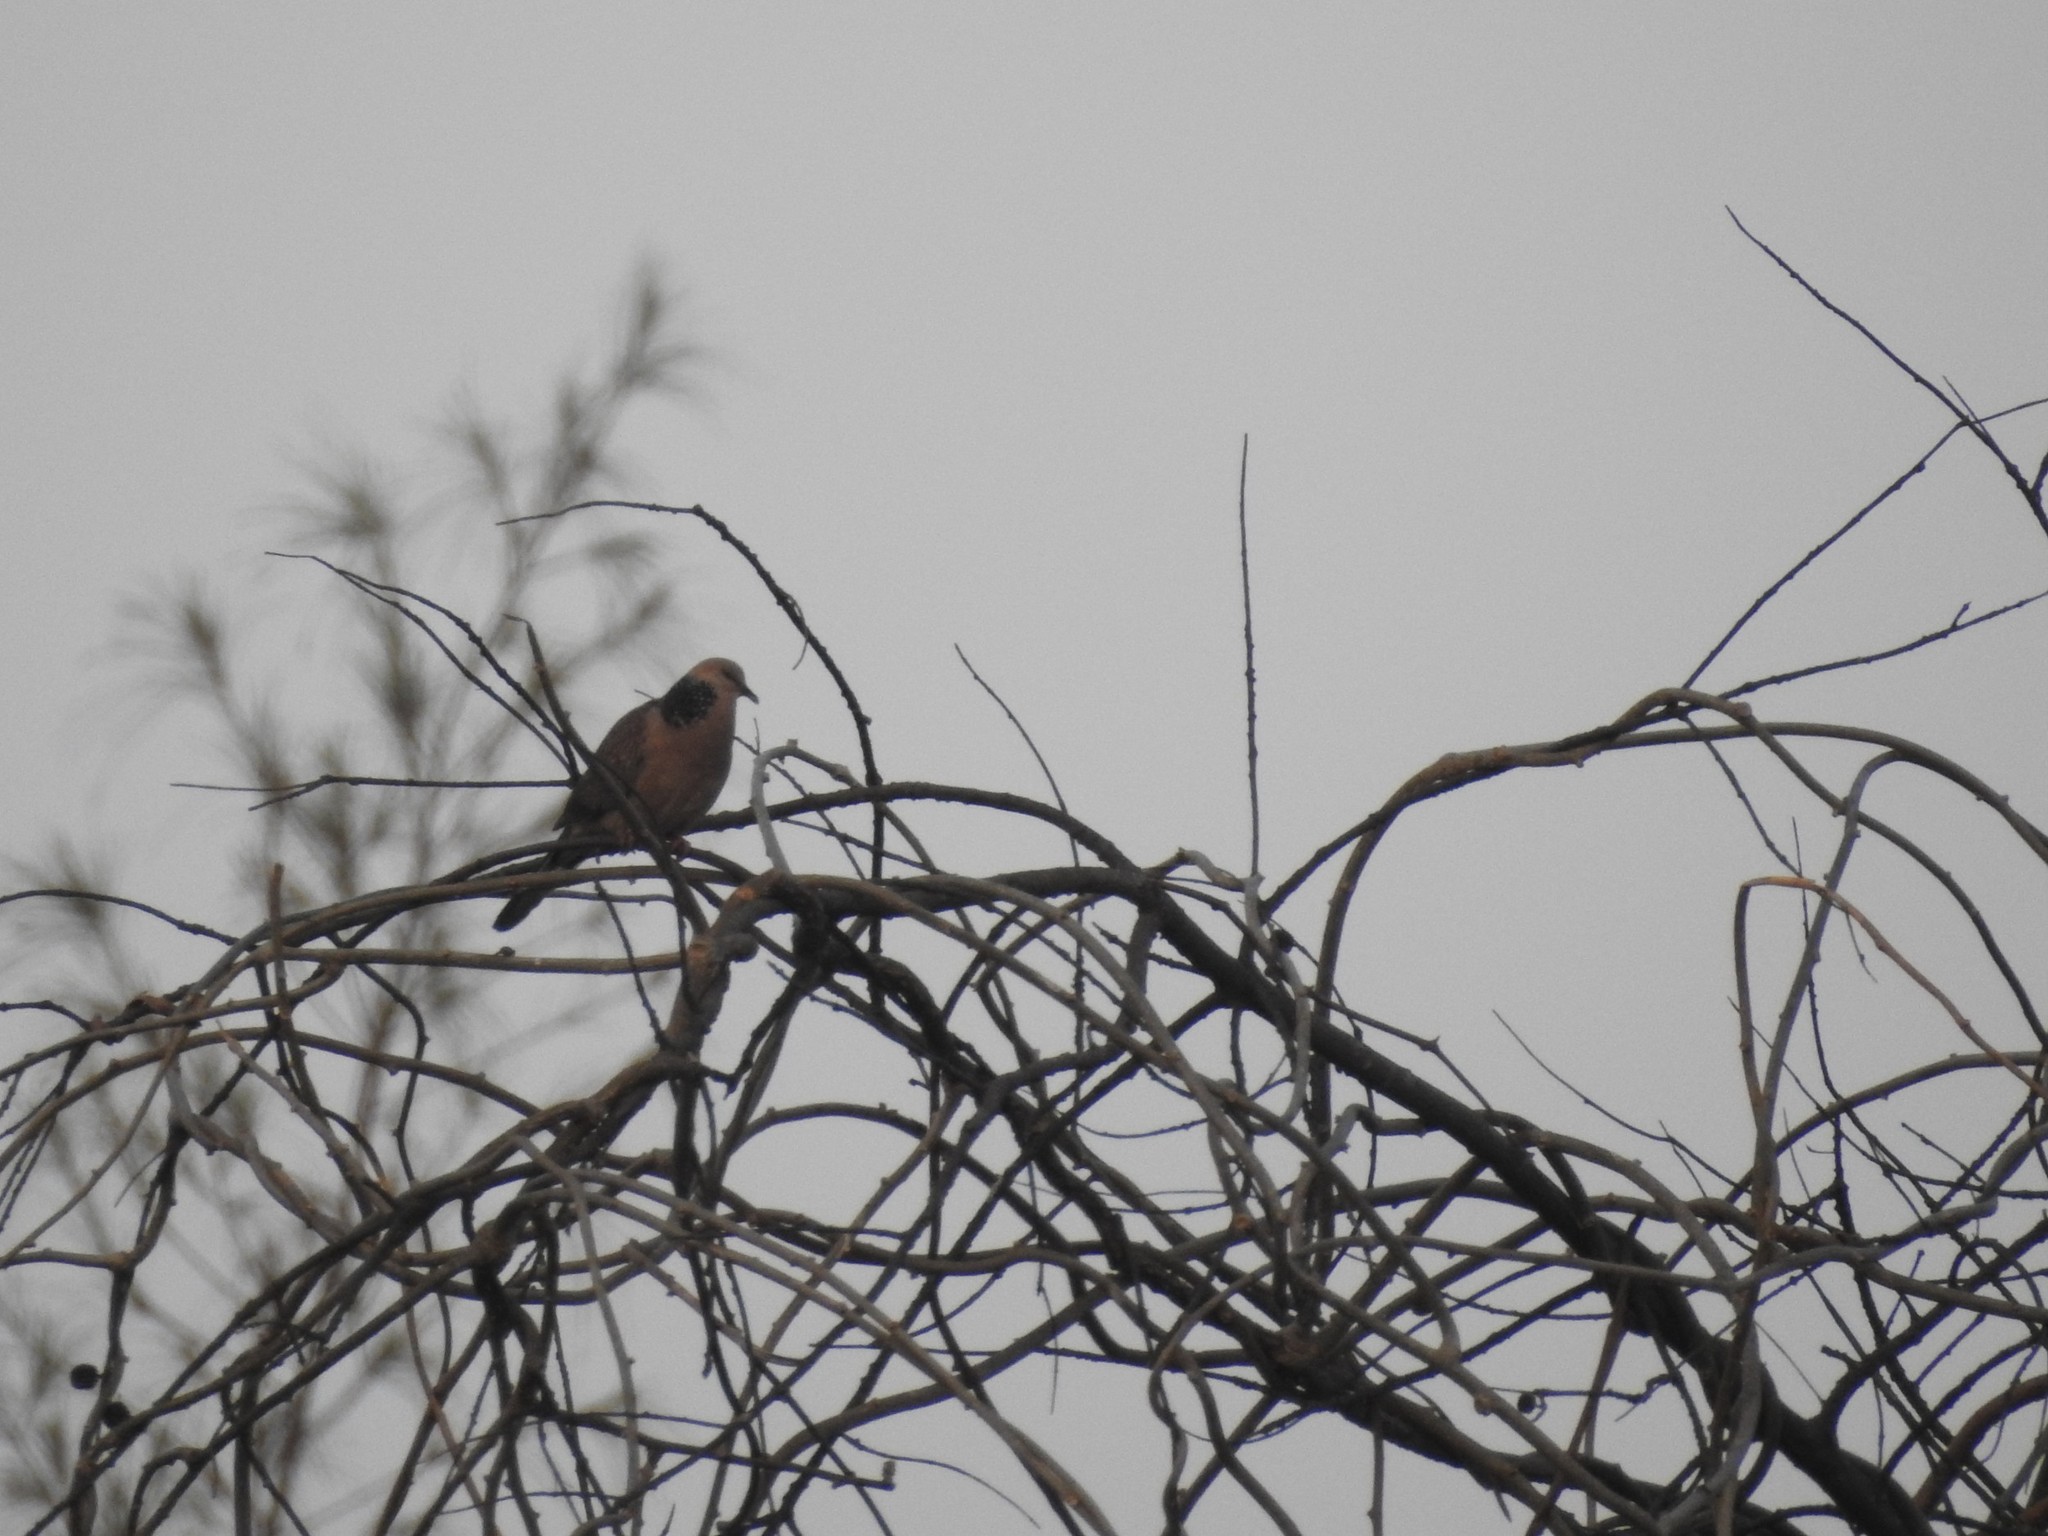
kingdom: Animalia
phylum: Chordata
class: Aves
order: Columbiformes
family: Columbidae
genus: Spilopelia
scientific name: Spilopelia chinensis
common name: Spotted dove
